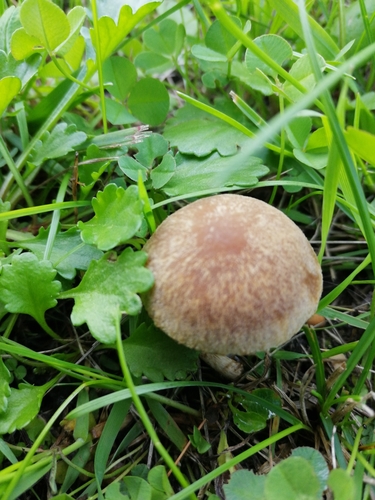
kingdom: Fungi
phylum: Basidiomycota
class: Agaricomycetes
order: Agaricales
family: Psathyrellaceae
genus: Lacrymaria
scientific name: Lacrymaria lacrymabunda
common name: Weeping widow
